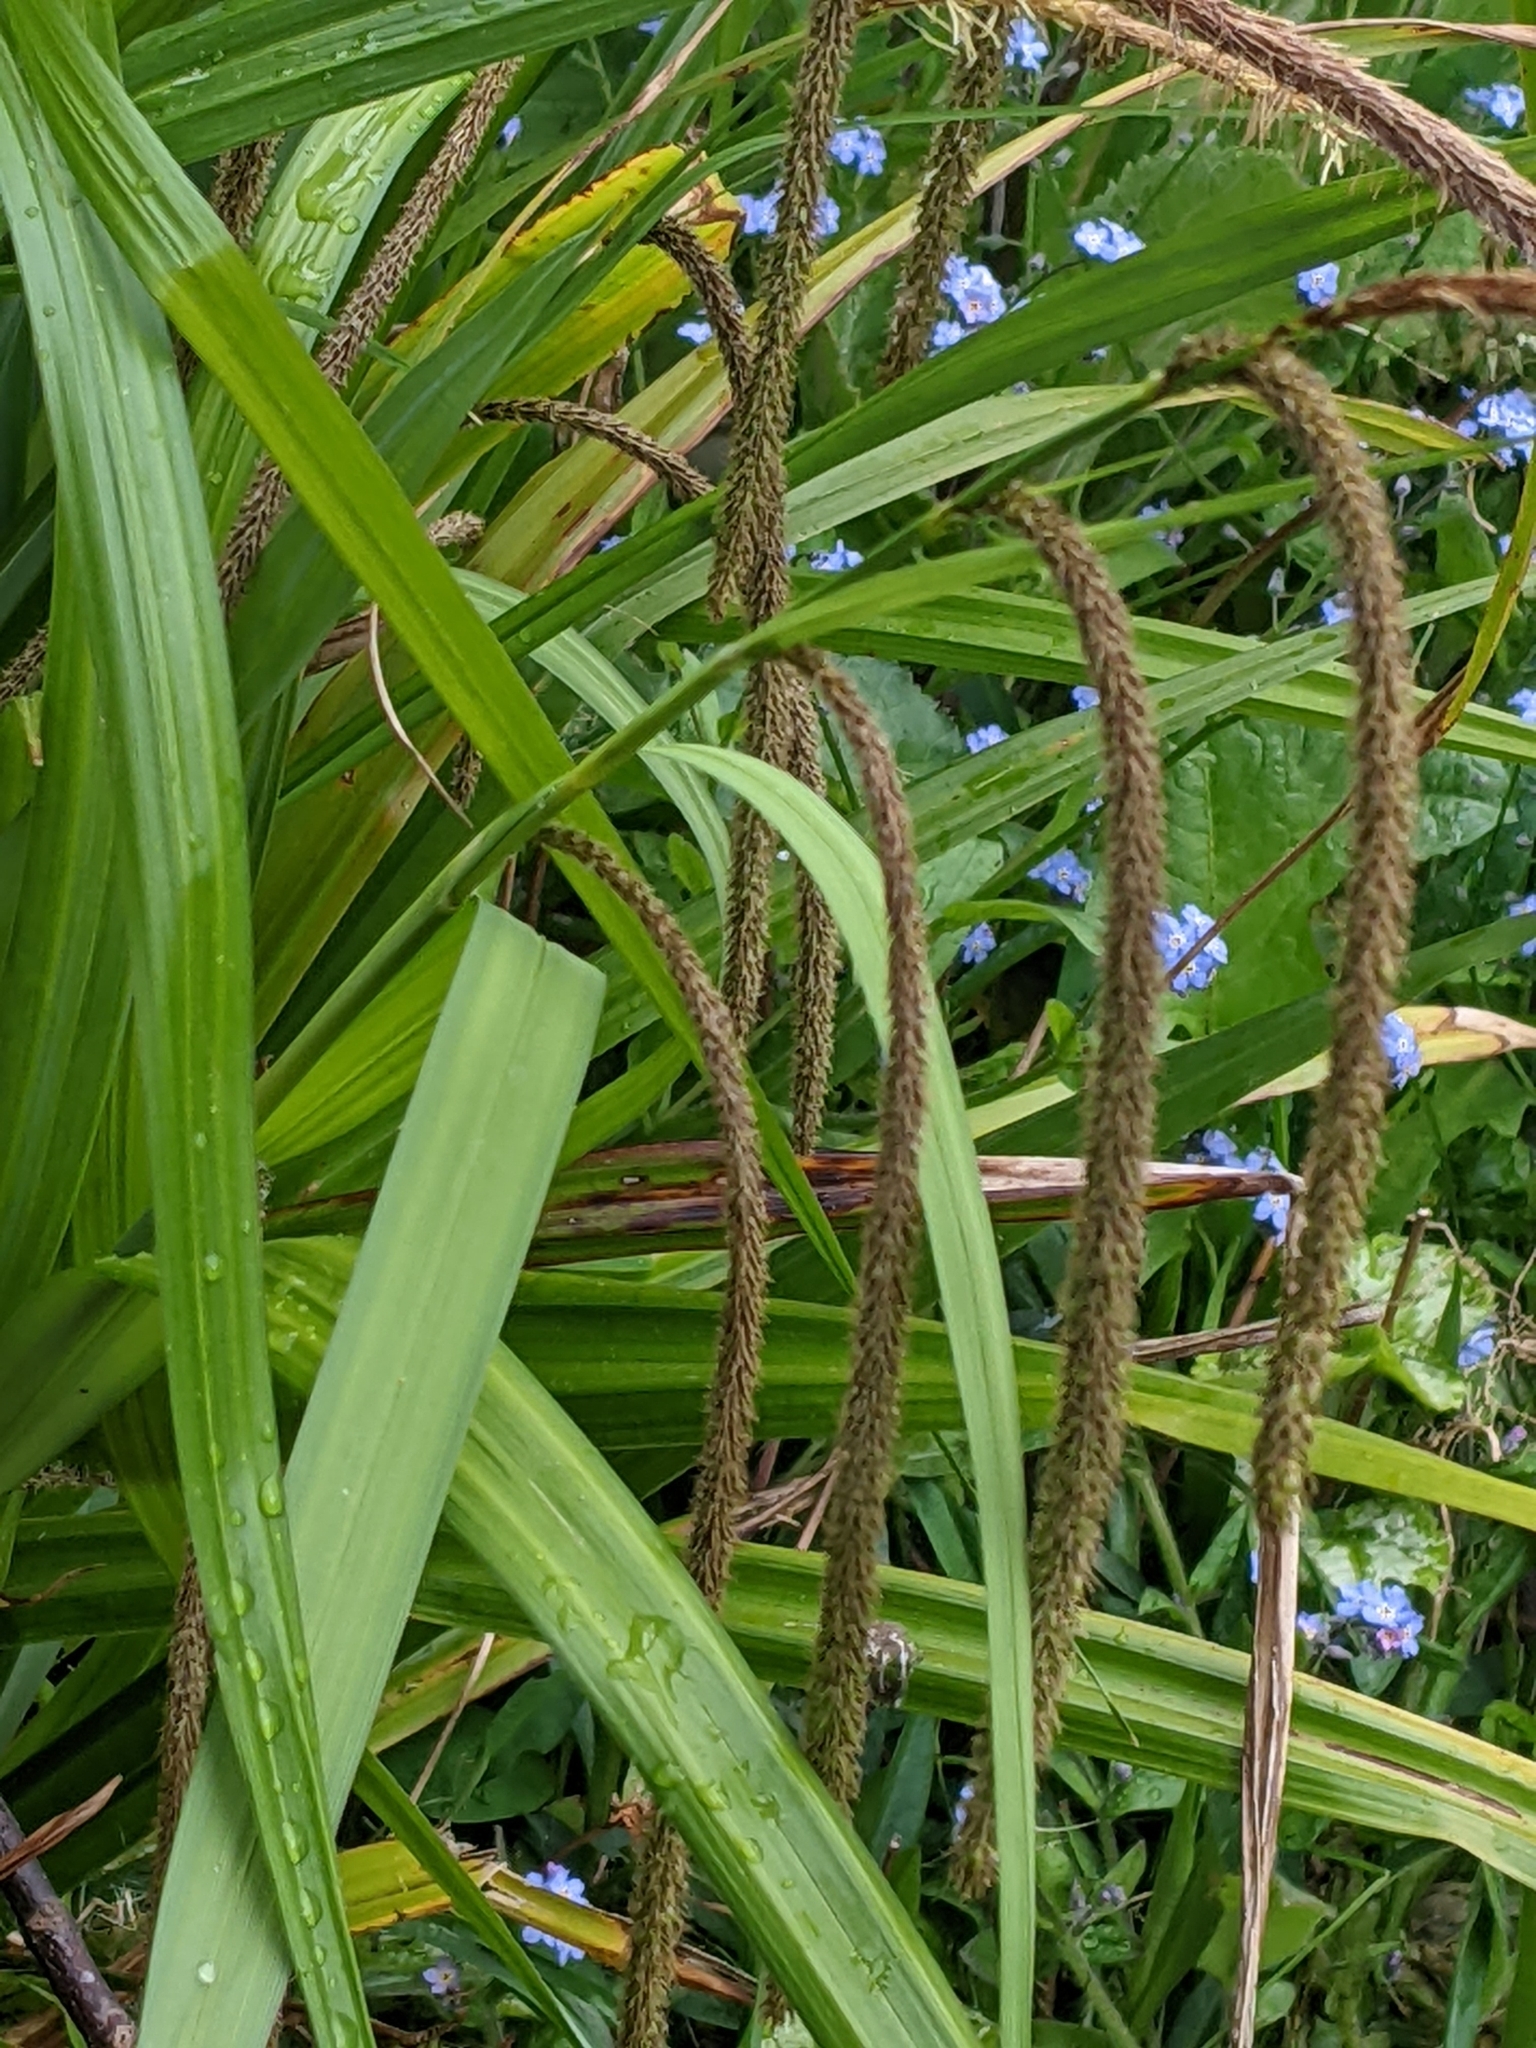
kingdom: Plantae
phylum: Tracheophyta
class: Liliopsida
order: Poales
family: Cyperaceae
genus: Carex
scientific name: Carex pendula
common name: Pendulous sedge
